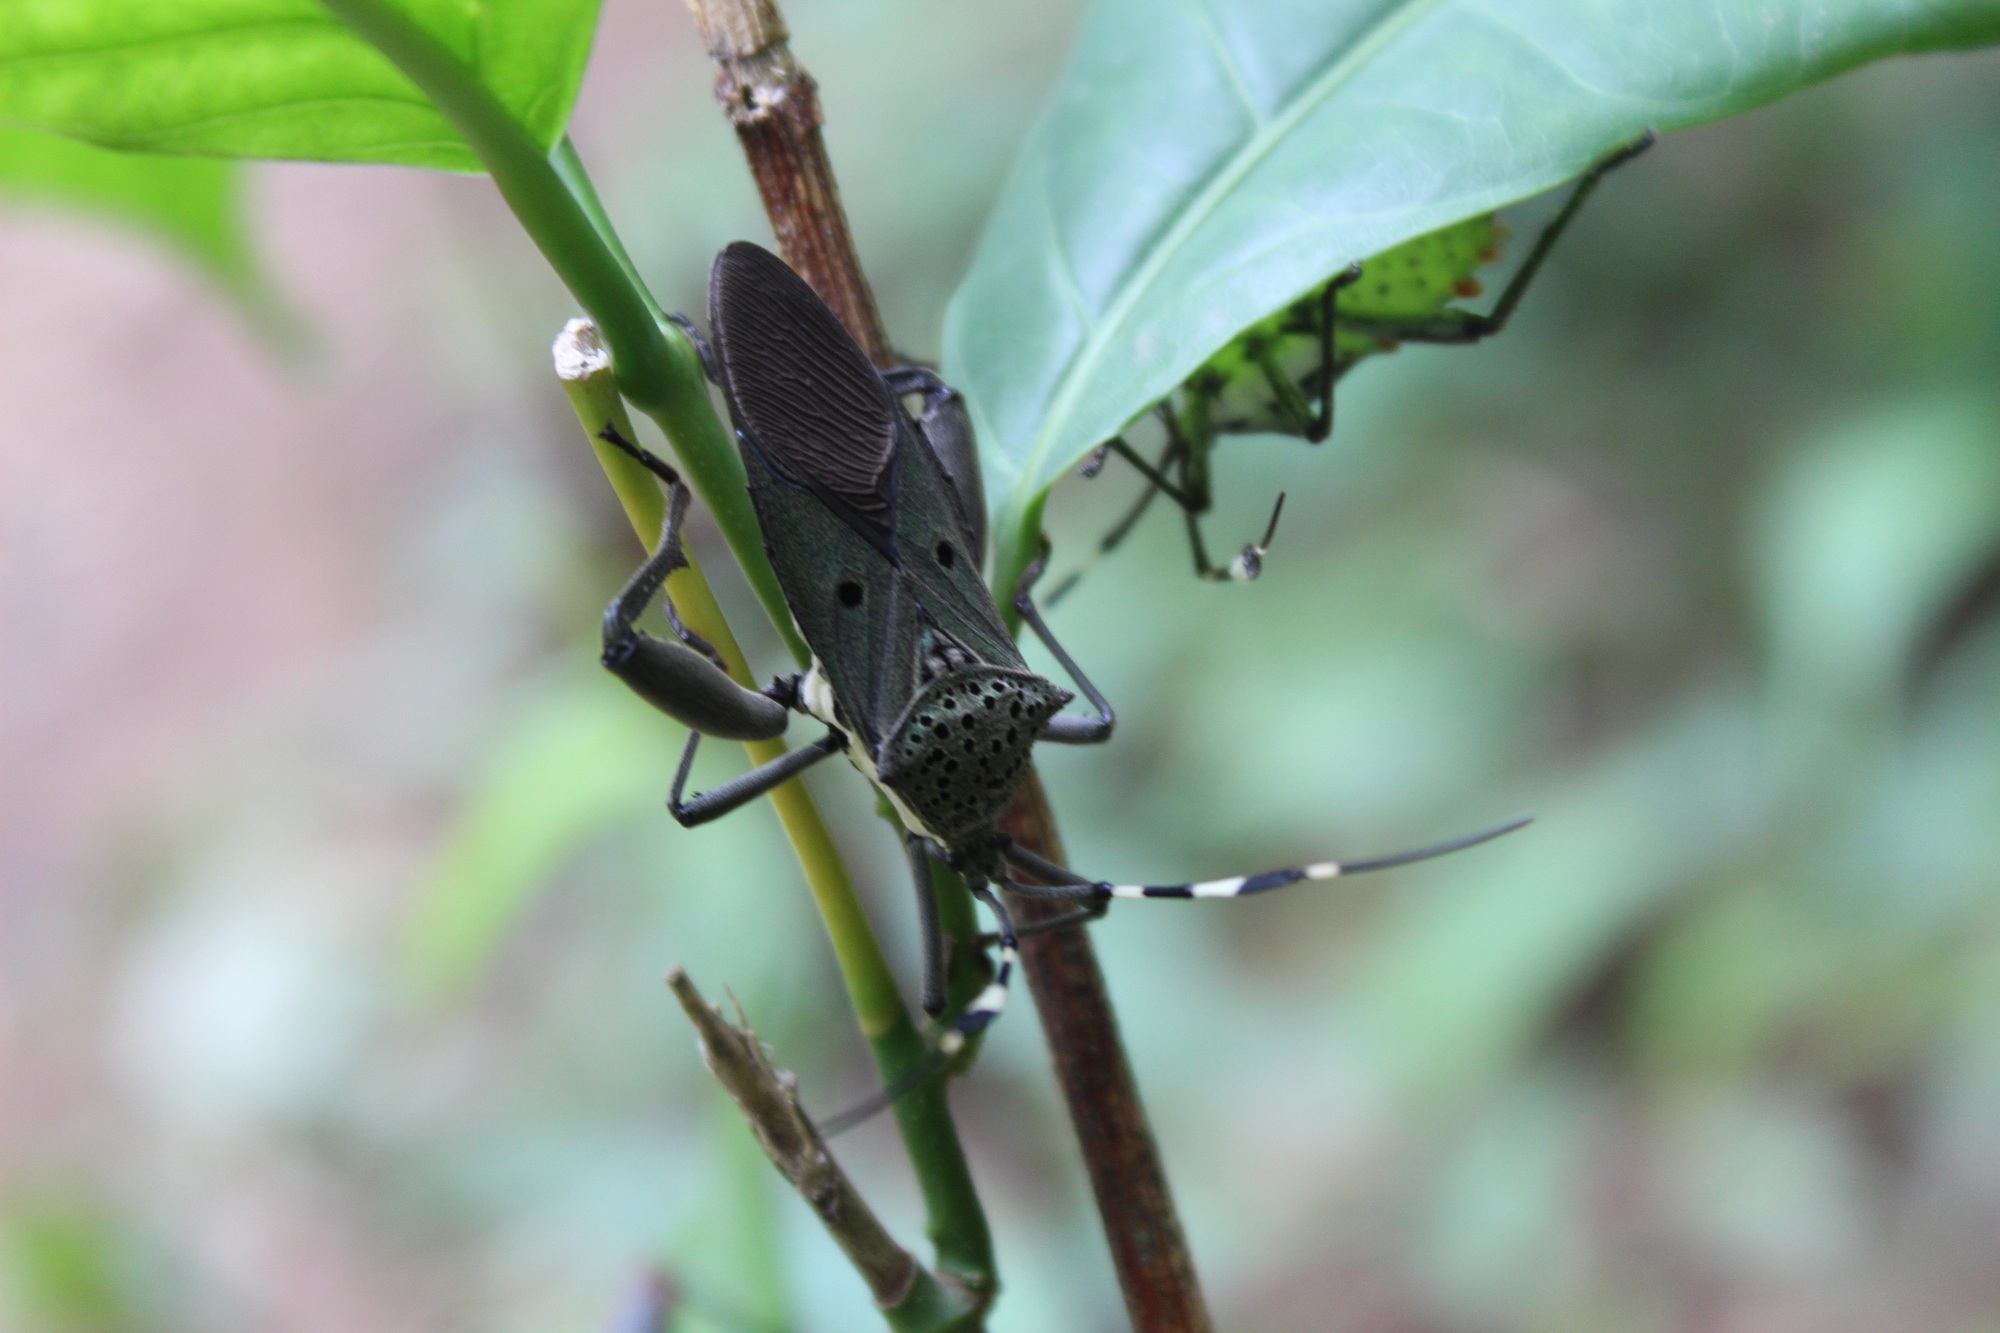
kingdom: Animalia
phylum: Arthropoda
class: Insecta
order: Hemiptera
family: Coreidae
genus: Molchina
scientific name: Molchina compressicornis
